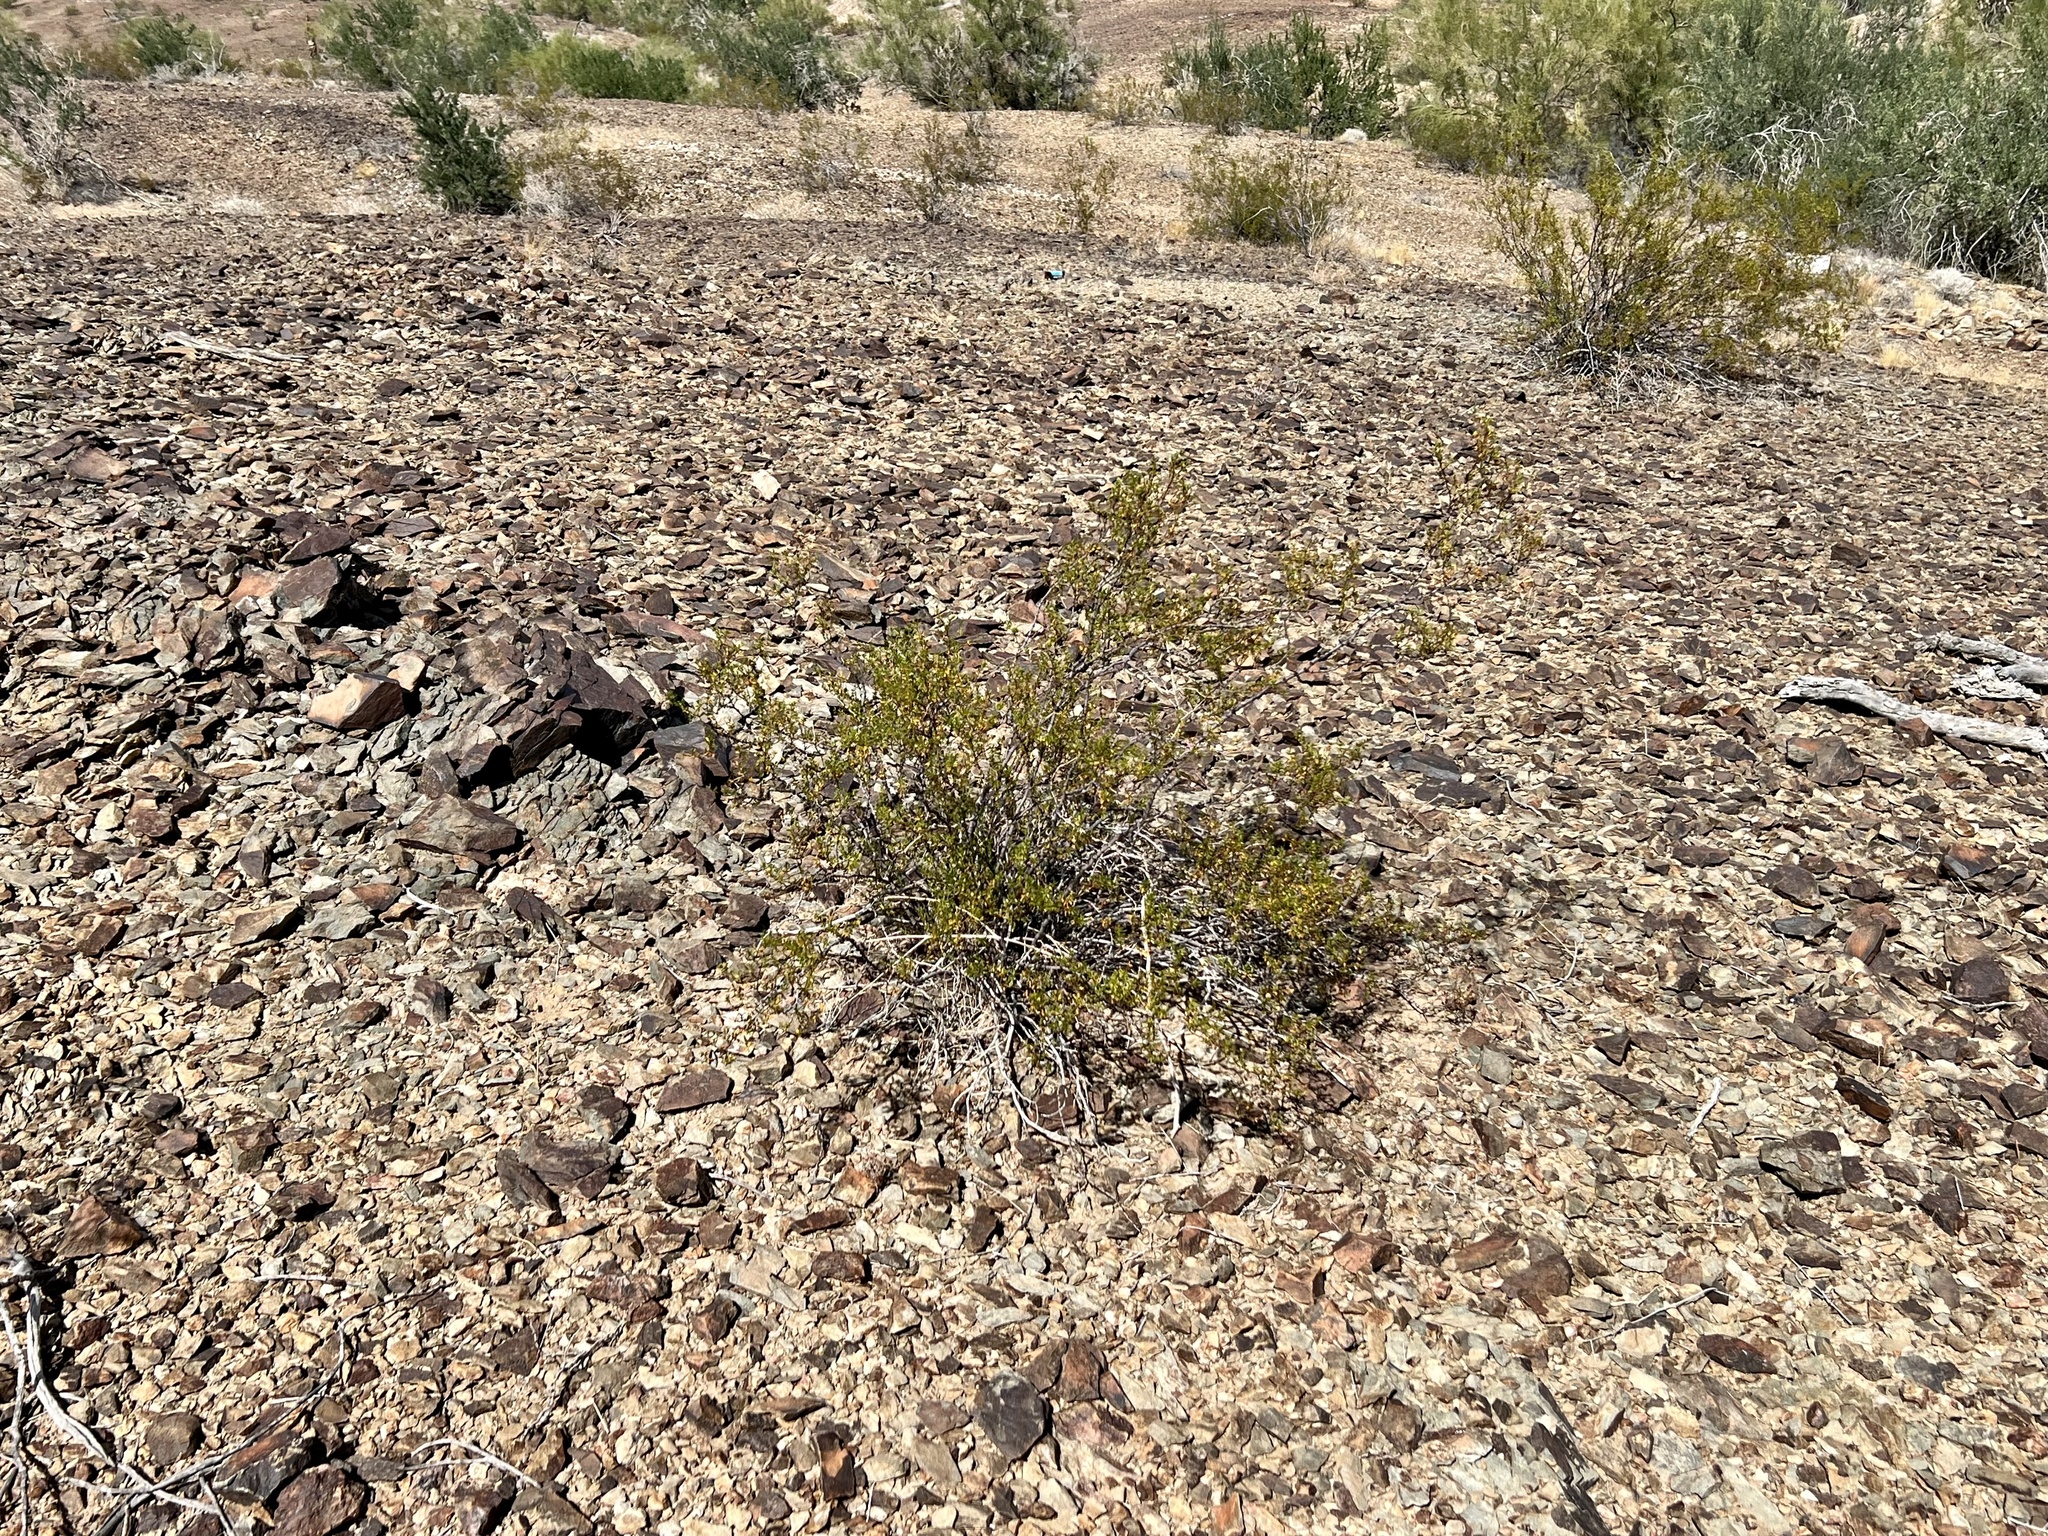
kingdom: Plantae
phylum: Tracheophyta
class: Magnoliopsida
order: Zygophyllales
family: Zygophyllaceae
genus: Larrea
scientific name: Larrea tridentata
